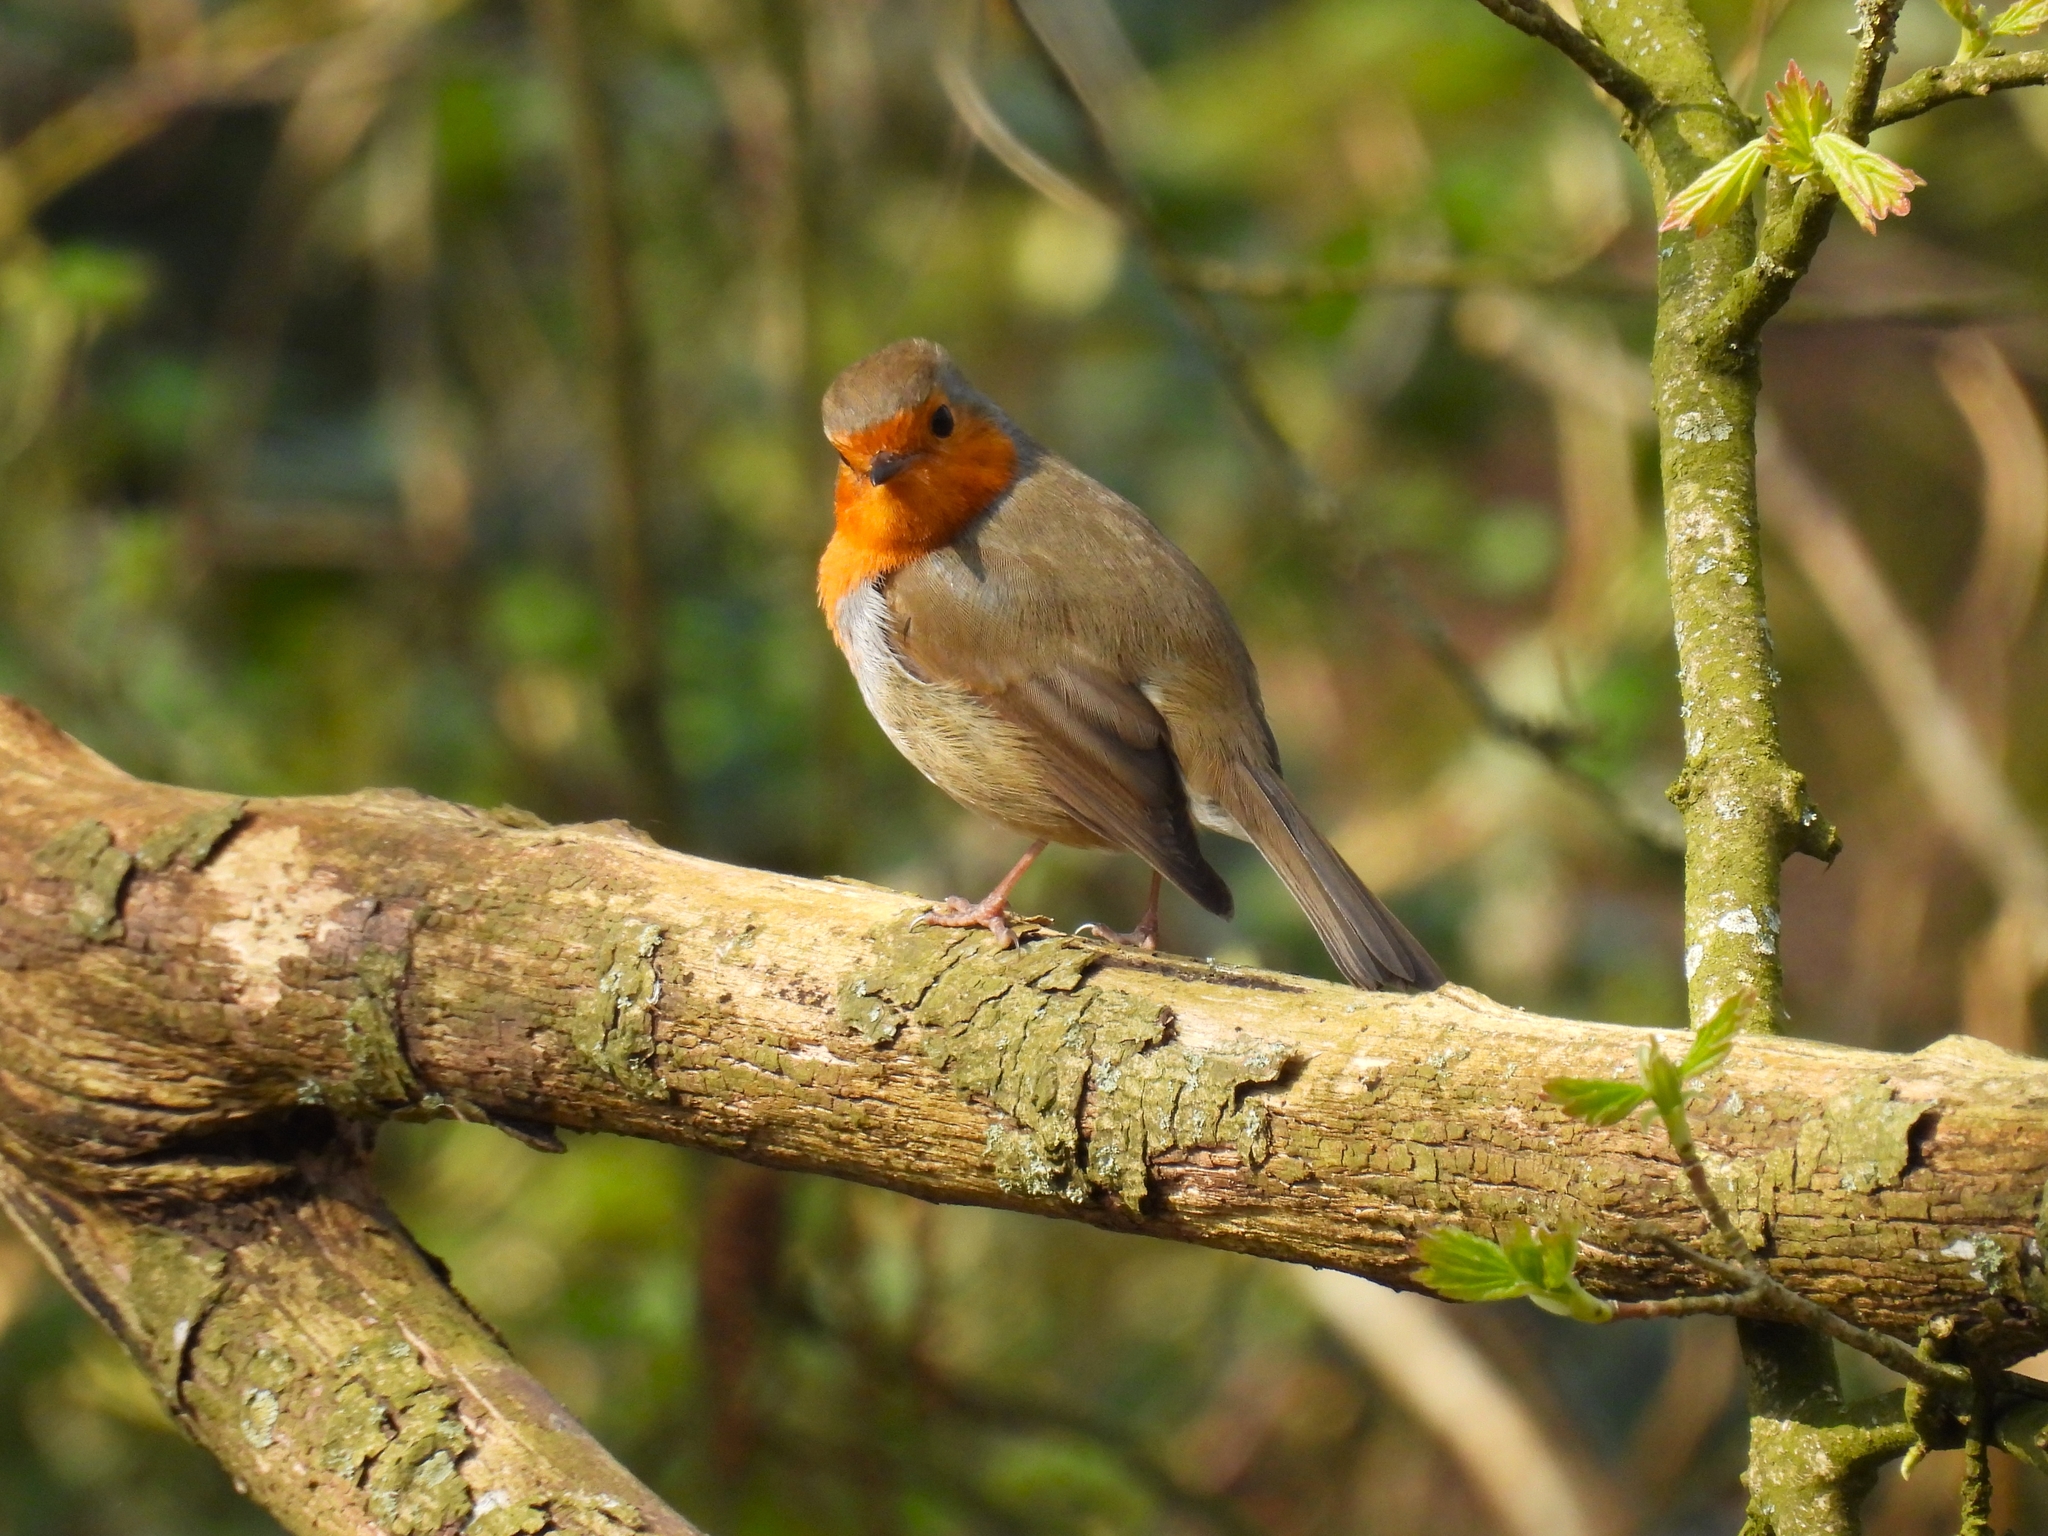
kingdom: Animalia
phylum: Chordata
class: Aves
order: Passeriformes
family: Muscicapidae
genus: Erithacus
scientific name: Erithacus rubecula
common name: European robin
